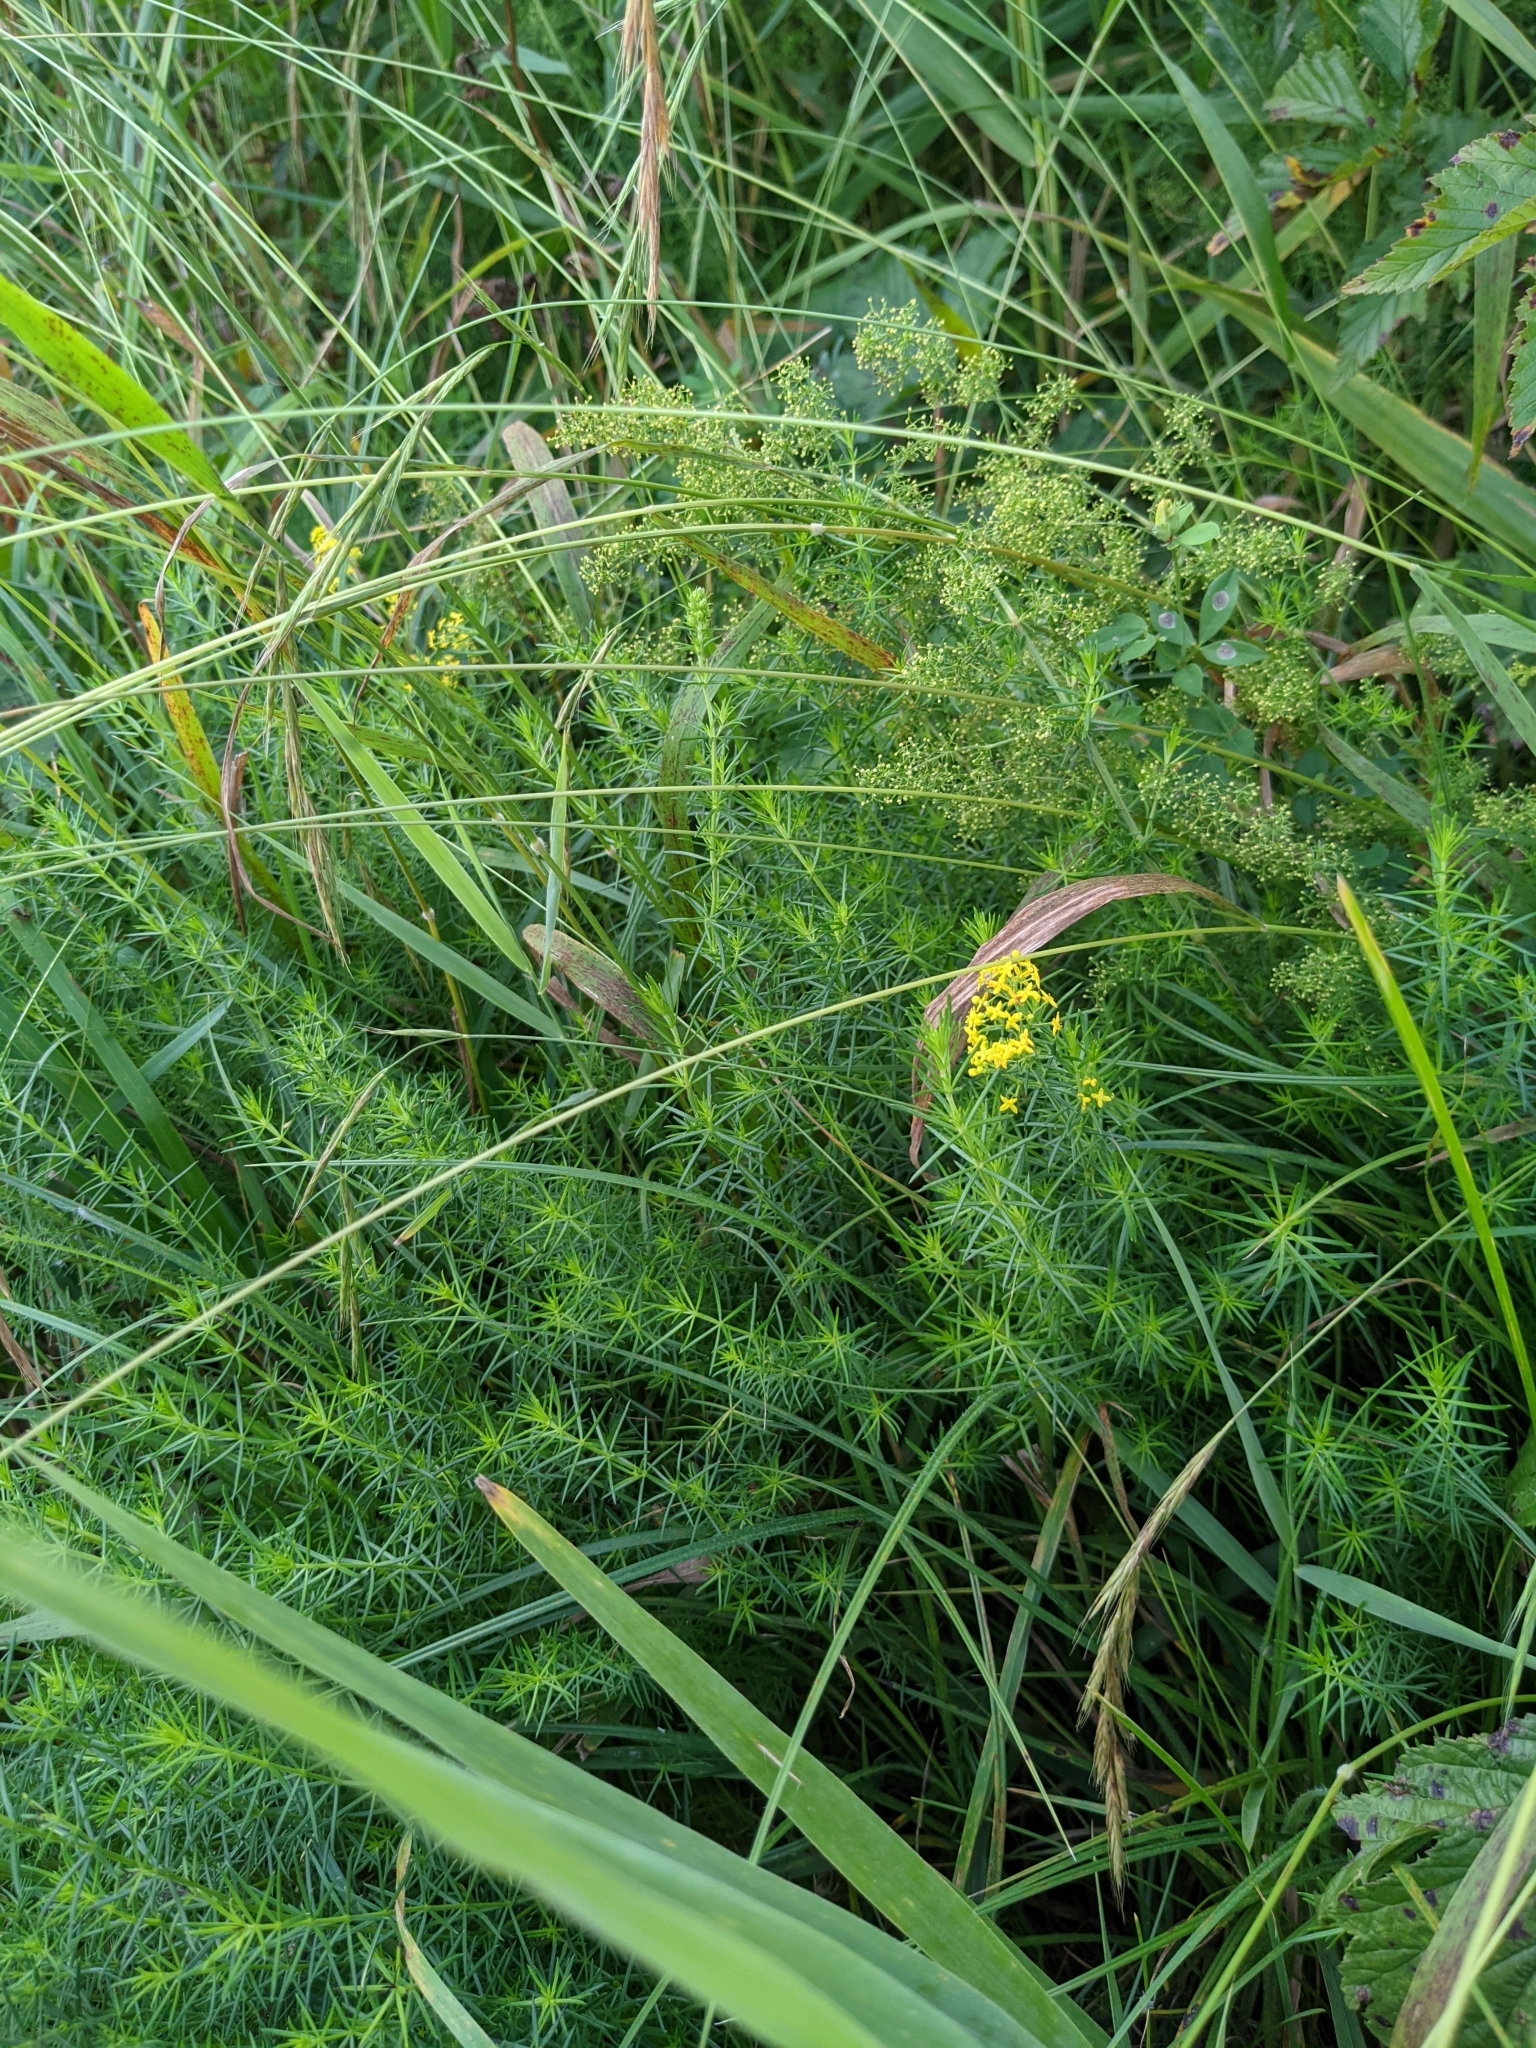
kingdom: Plantae
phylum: Tracheophyta
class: Magnoliopsida
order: Gentianales
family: Rubiaceae
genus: Galium
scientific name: Galium verum
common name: Lady's bedstraw
